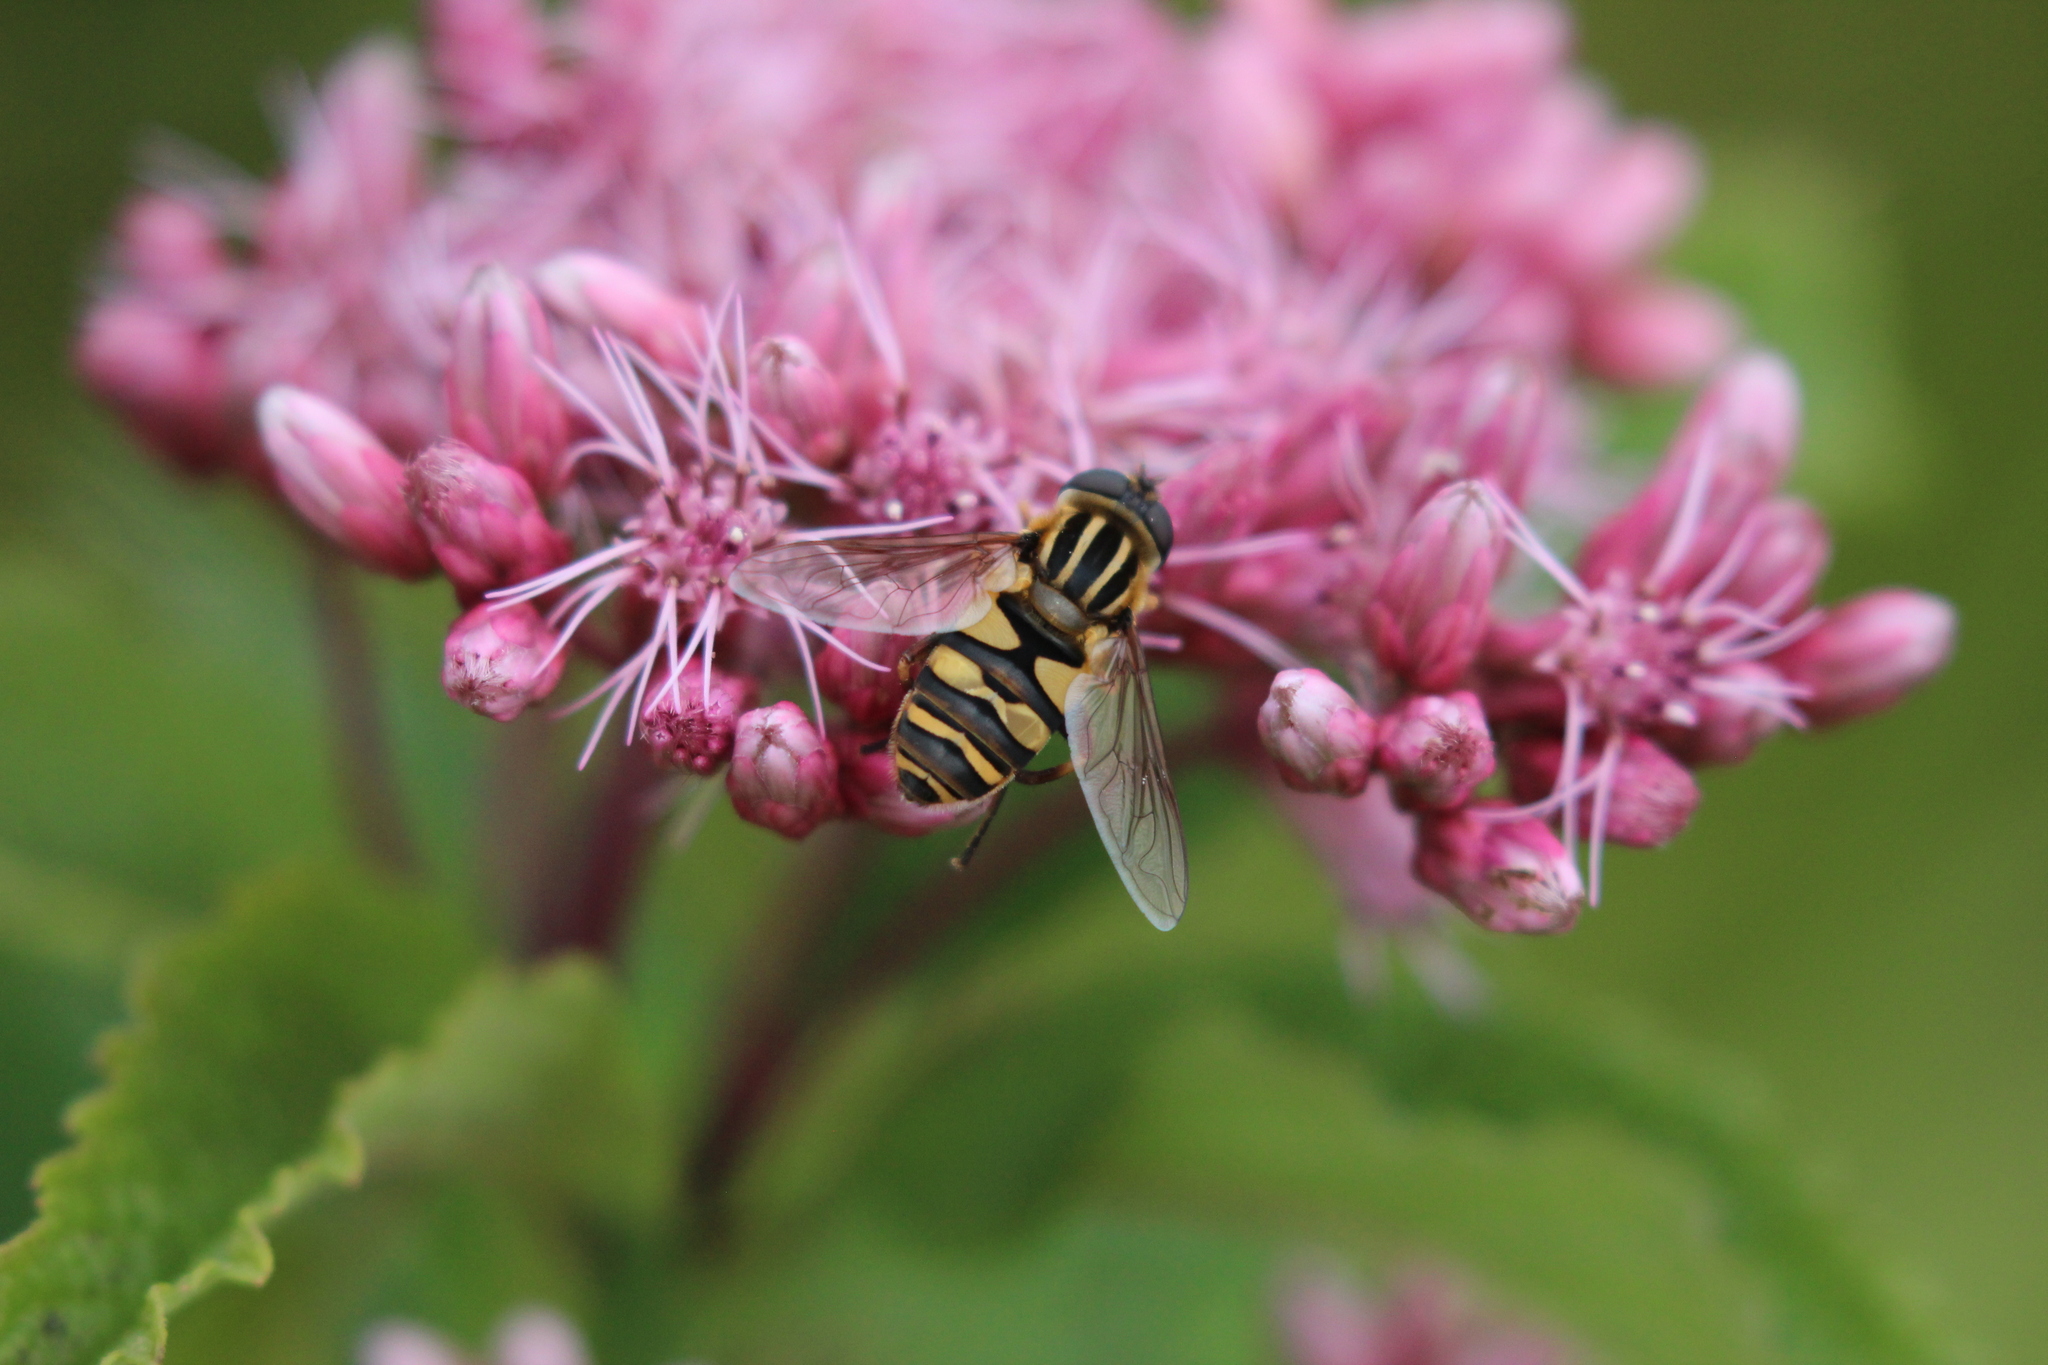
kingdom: Animalia
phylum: Arthropoda
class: Insecta
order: Diptera
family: Syrphidae
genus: Helophilus
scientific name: Helophilus fasciatus
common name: Narrow-headed marsh fly
